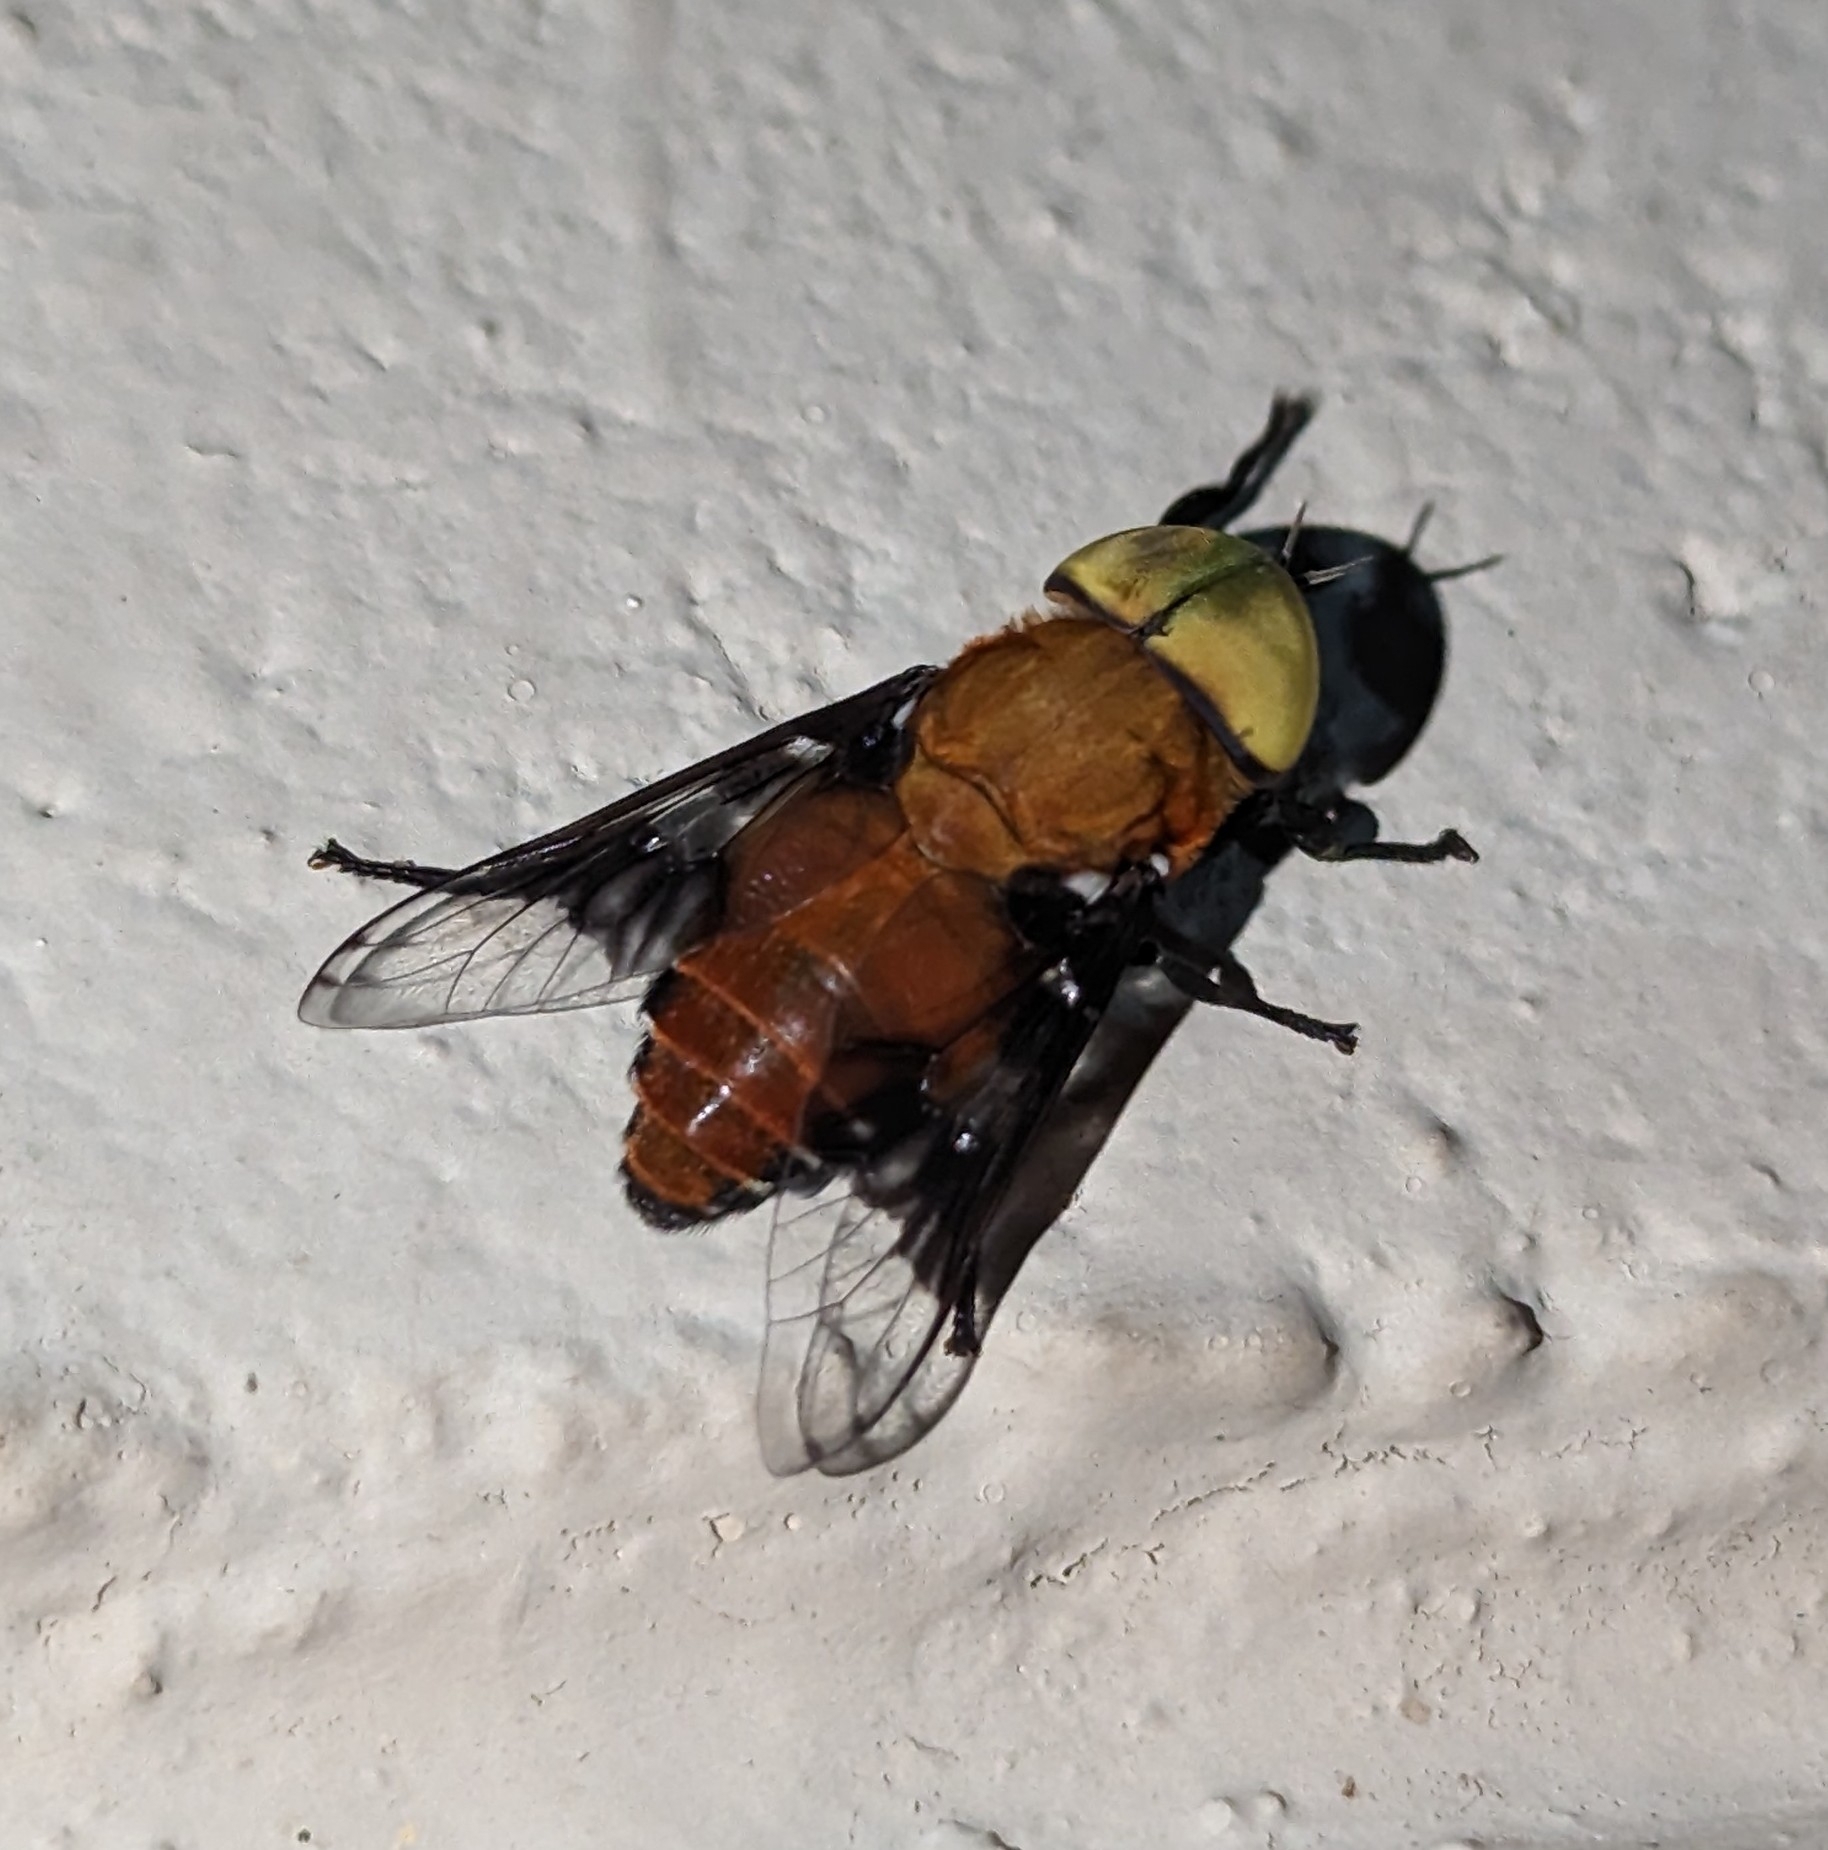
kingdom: Animalia
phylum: Arthropoda
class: Insecta
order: Diptera
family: Tabanidae
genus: Ancala
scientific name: Ancala africana
